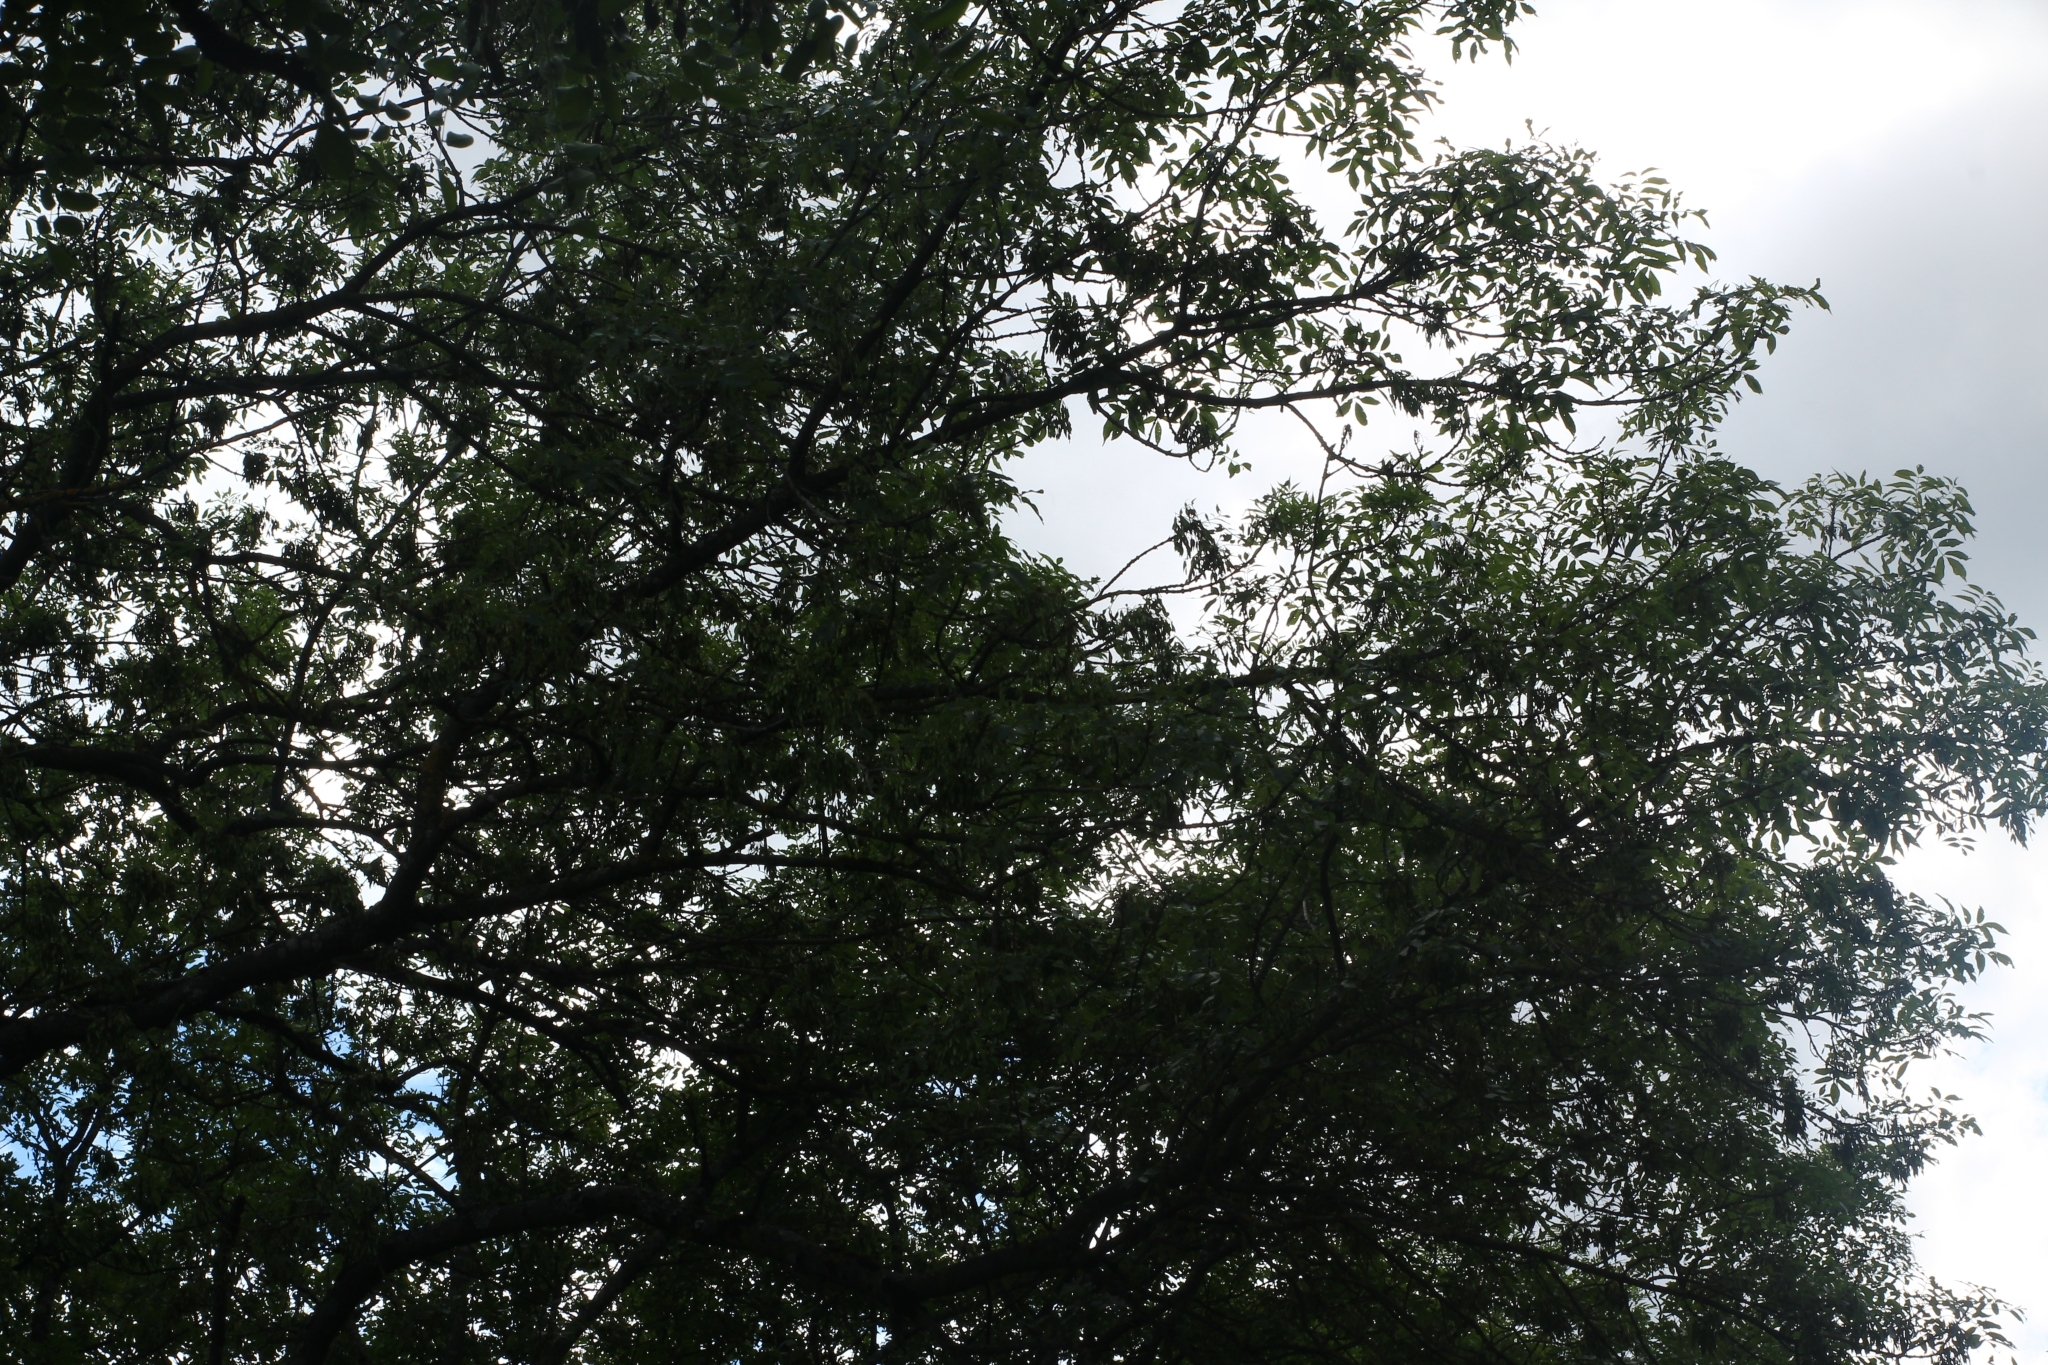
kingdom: Plantae
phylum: Tracheophyta
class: Magnoliopsida
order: Lamiales
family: Oleaceae
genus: Fraxinus
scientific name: Fraxinus excelsior
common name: European ash
